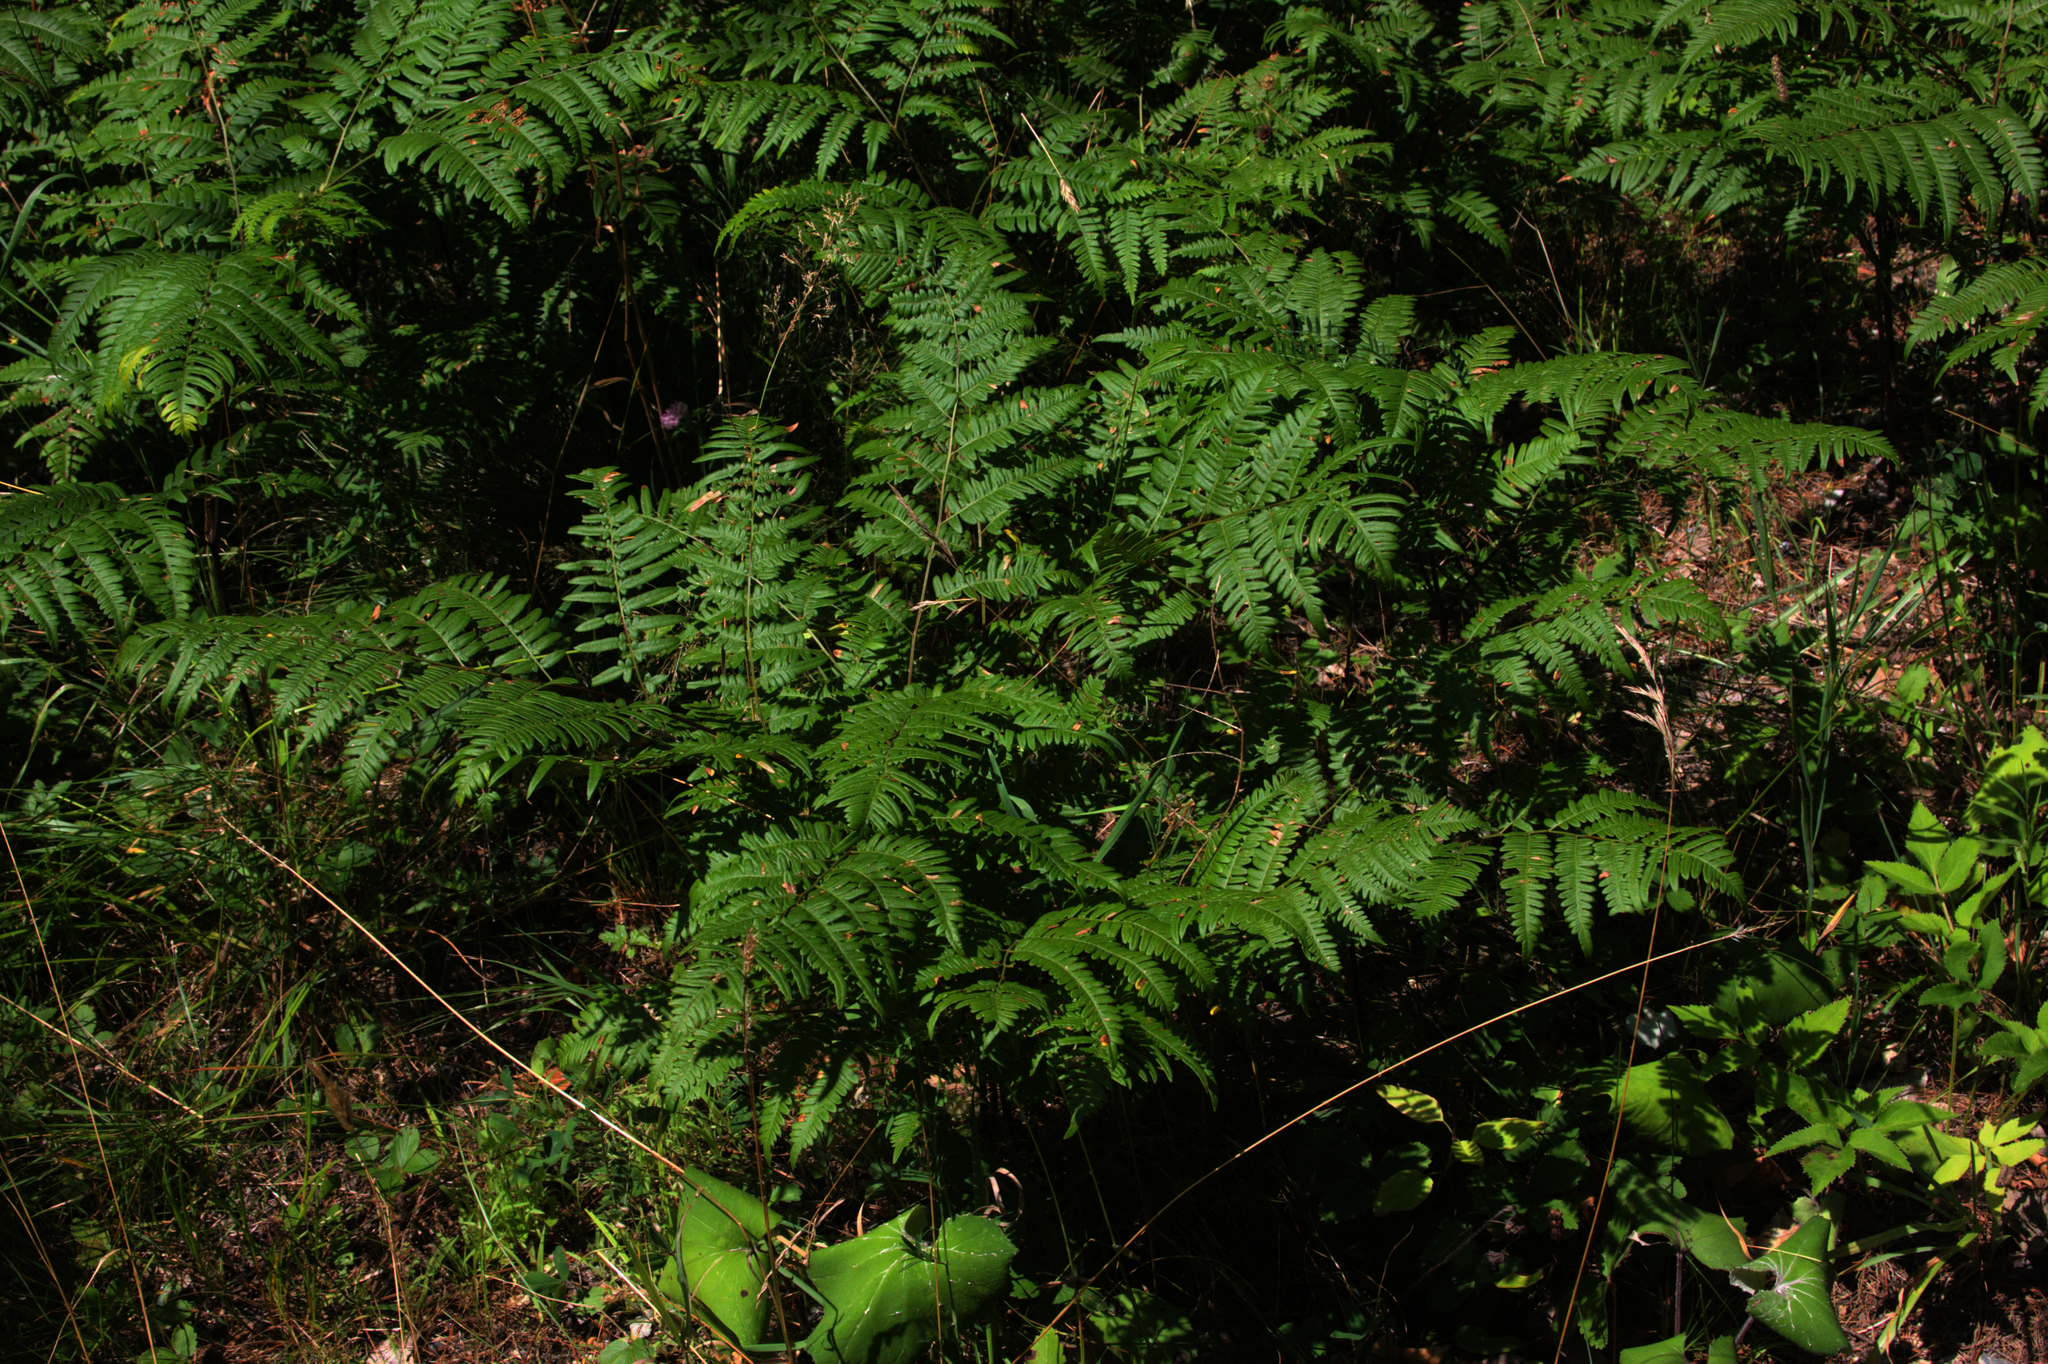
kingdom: Plantae
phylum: Tracheophyta
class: Polypodiopsida
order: Polypodiales
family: Dennstaedtiaceae
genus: Pteridium
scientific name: Pteridium aquilinum
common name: Bracken
